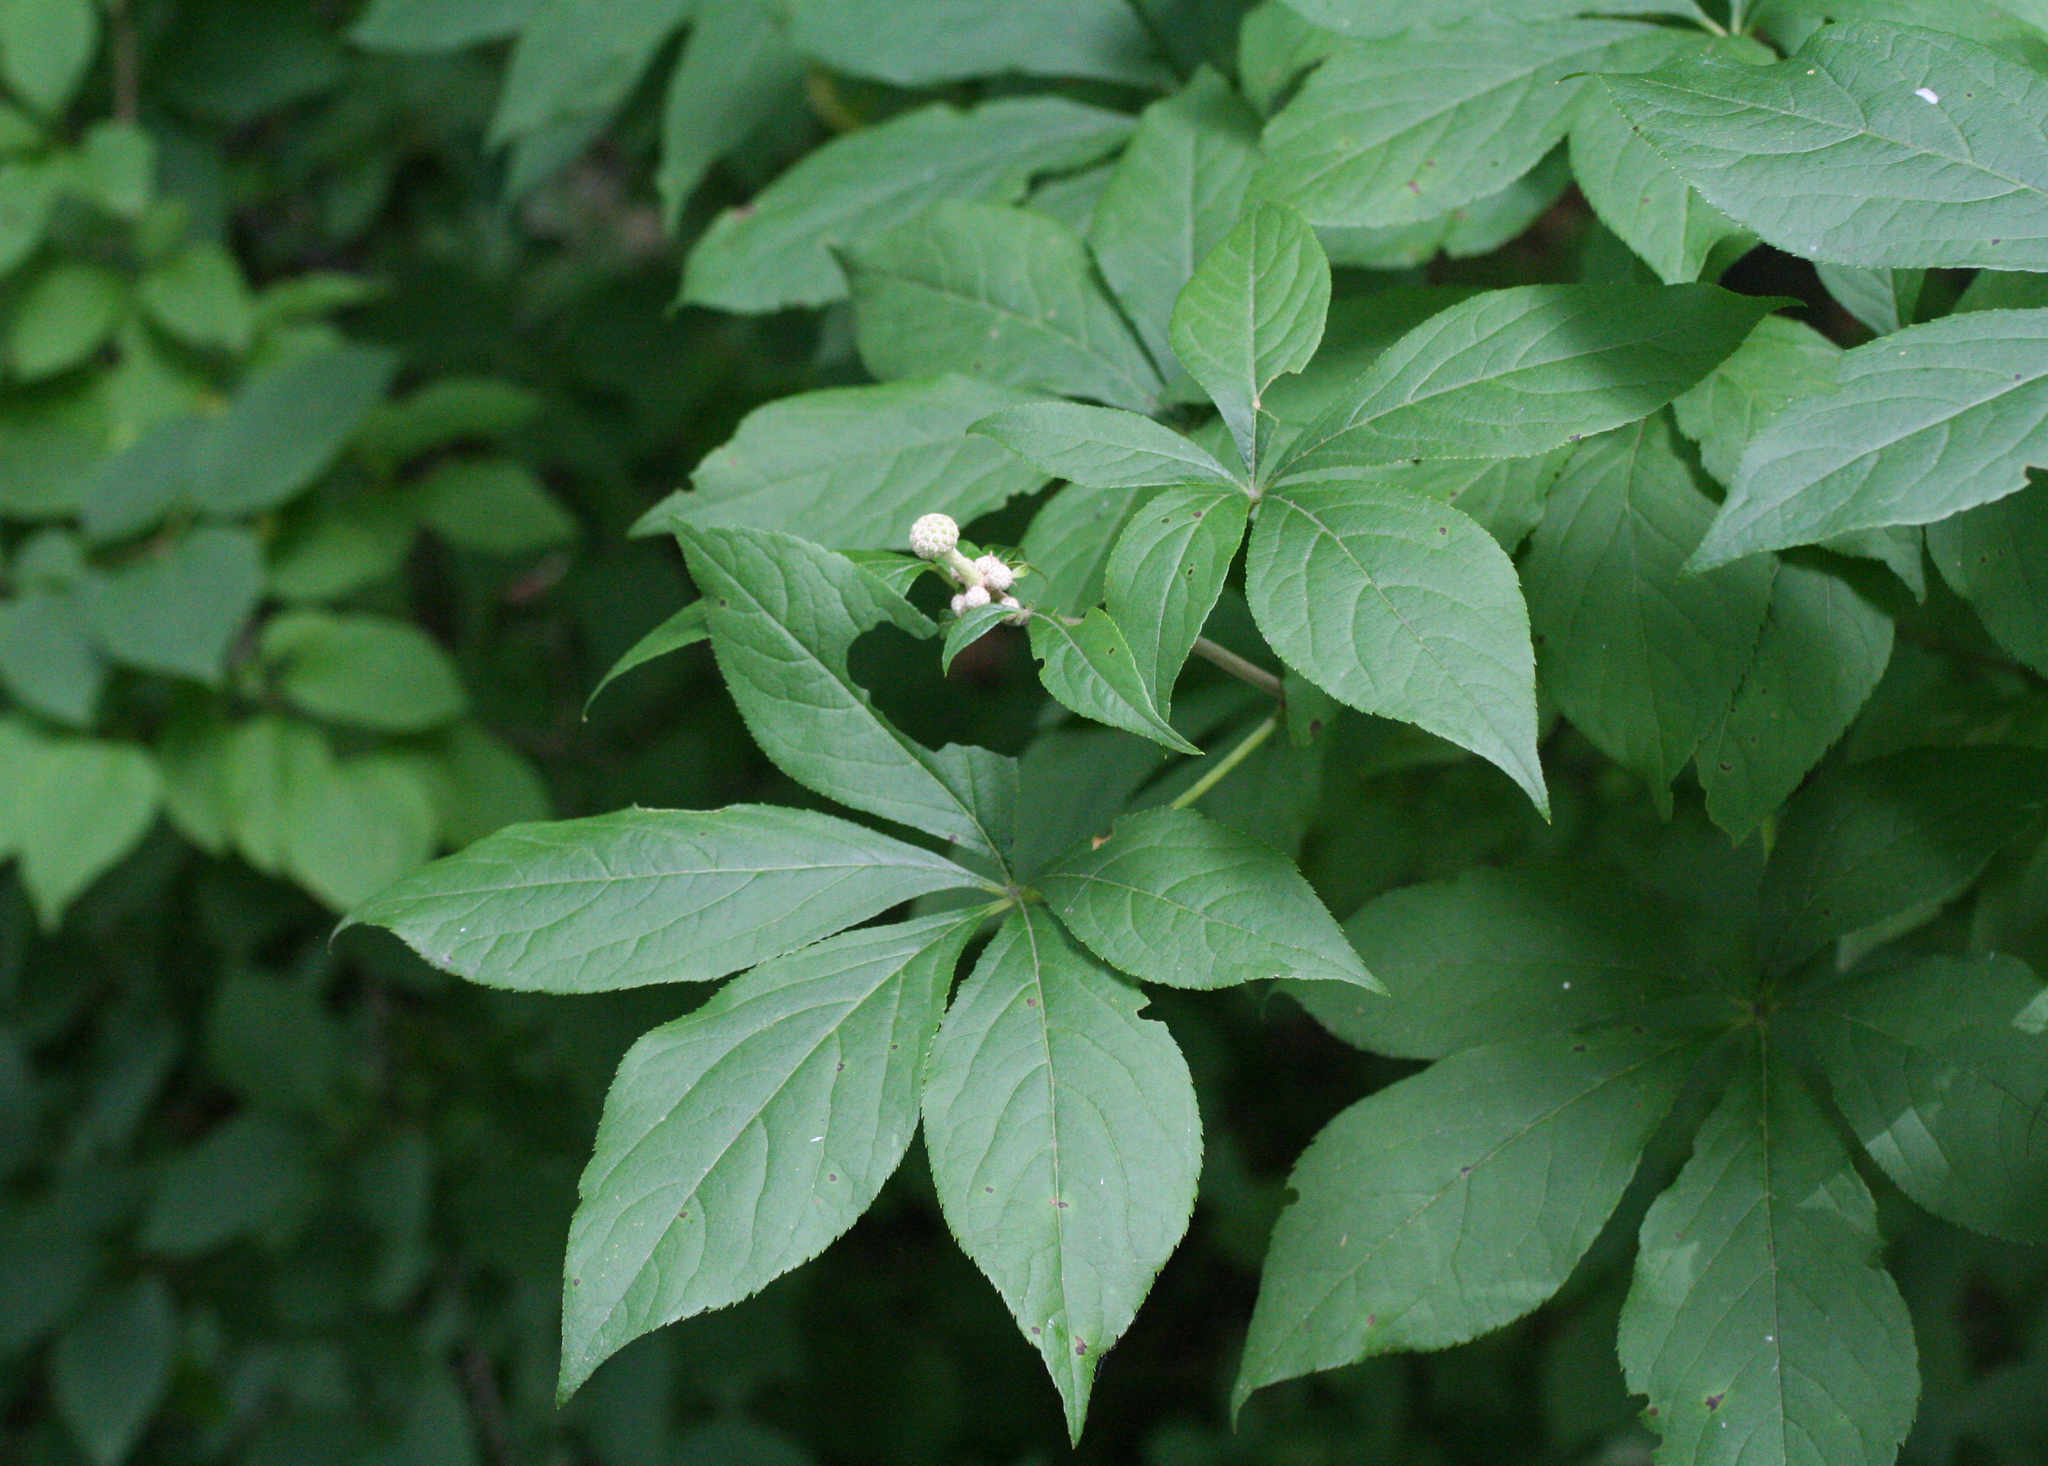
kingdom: Plantae
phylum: Tracheophyta
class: Magnoliopsida
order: Apiales
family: Araliaceae
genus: Eleutherococcus
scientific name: Eleutherococcus sessiliflorus
